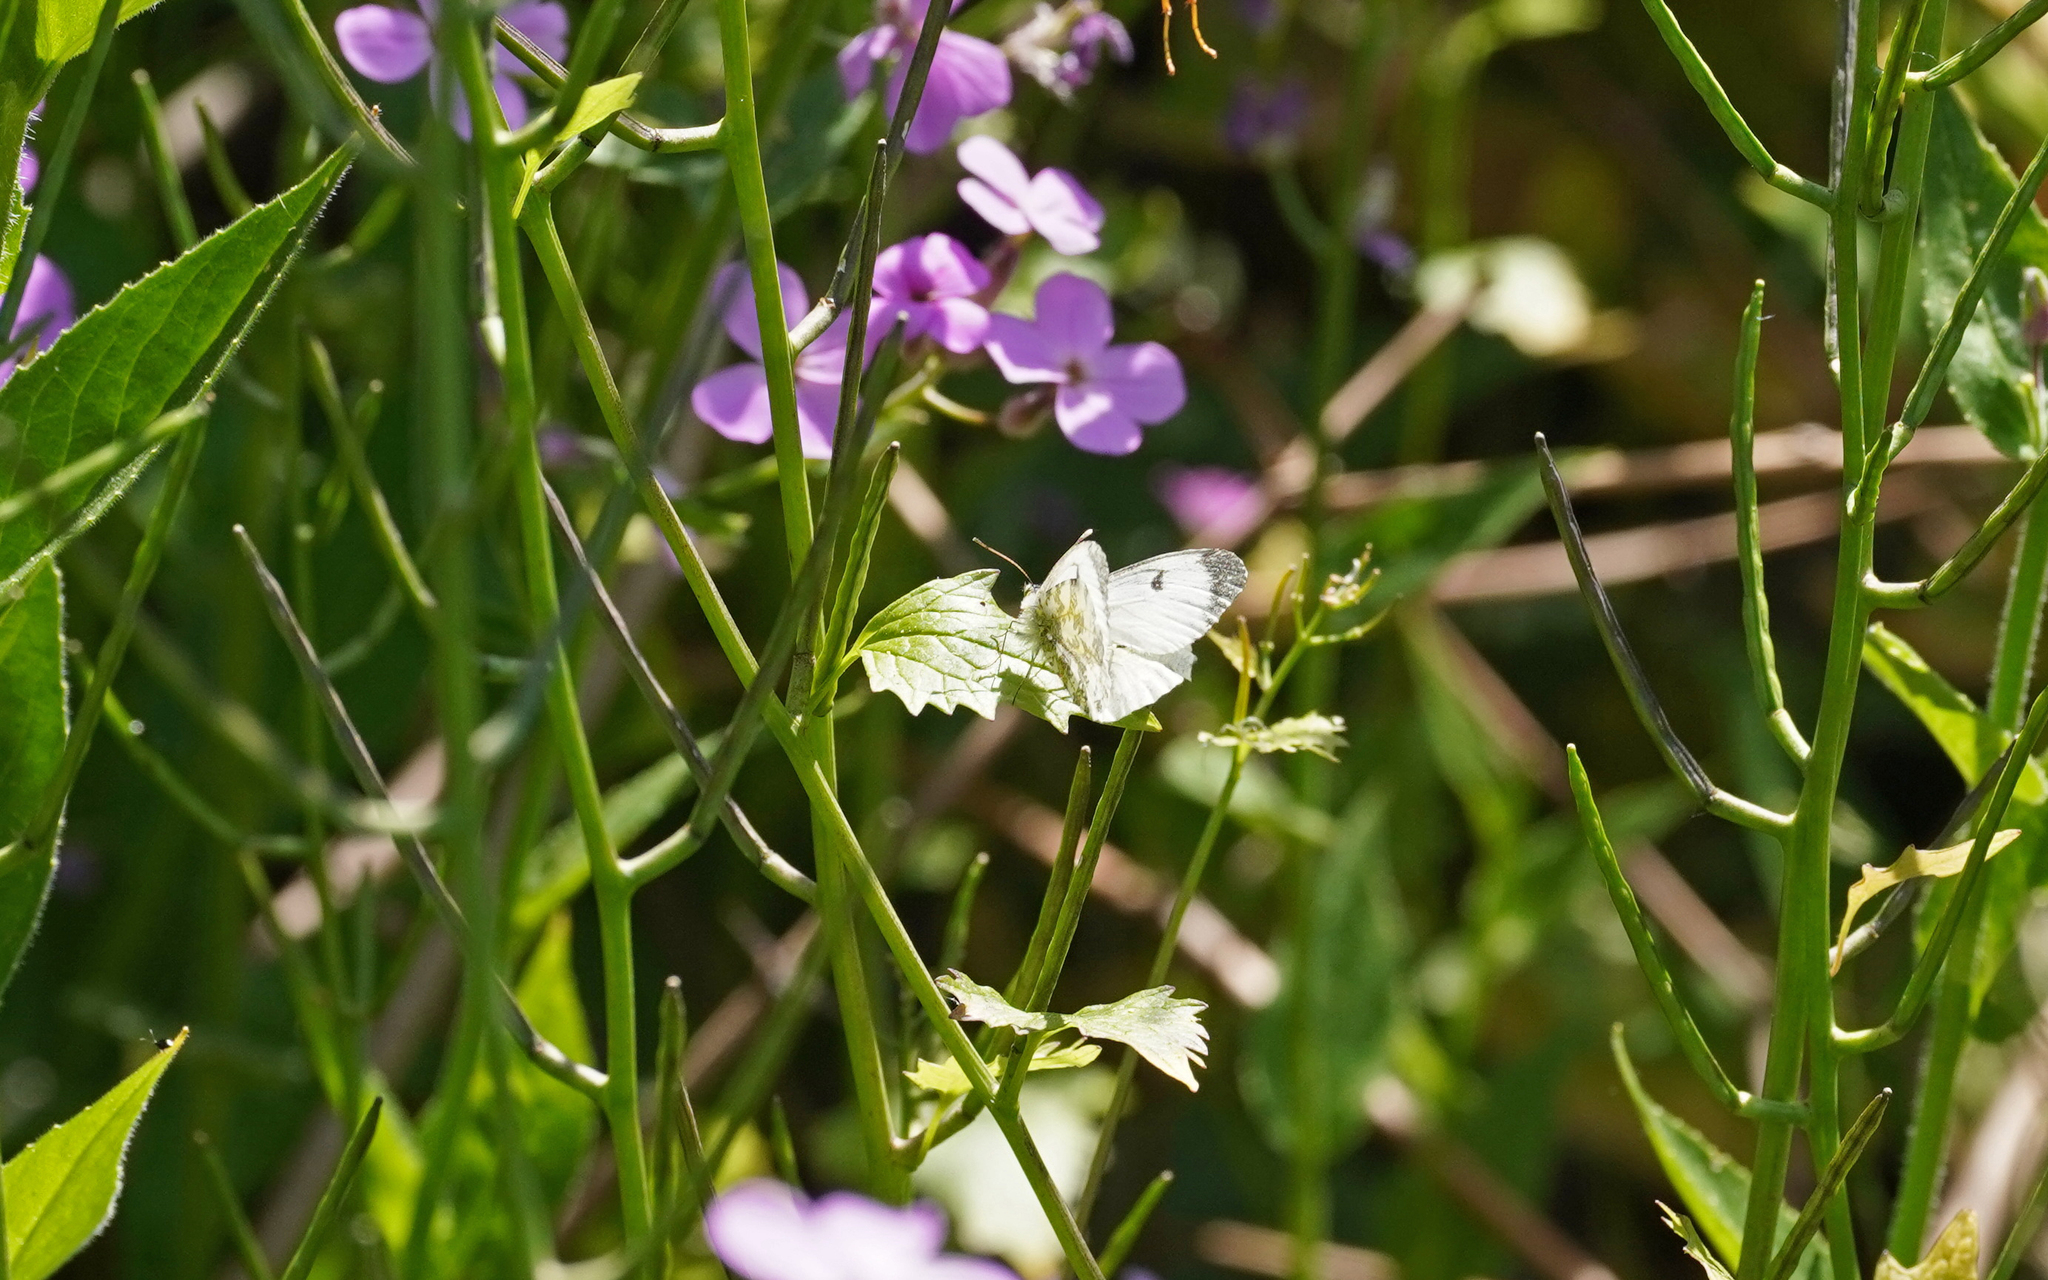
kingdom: Animalia
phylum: Arthropoda
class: Insecta
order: Lepidoptera
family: Pieridae
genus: Anthocharis
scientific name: Anthocharis cardamines
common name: Orange-tip
